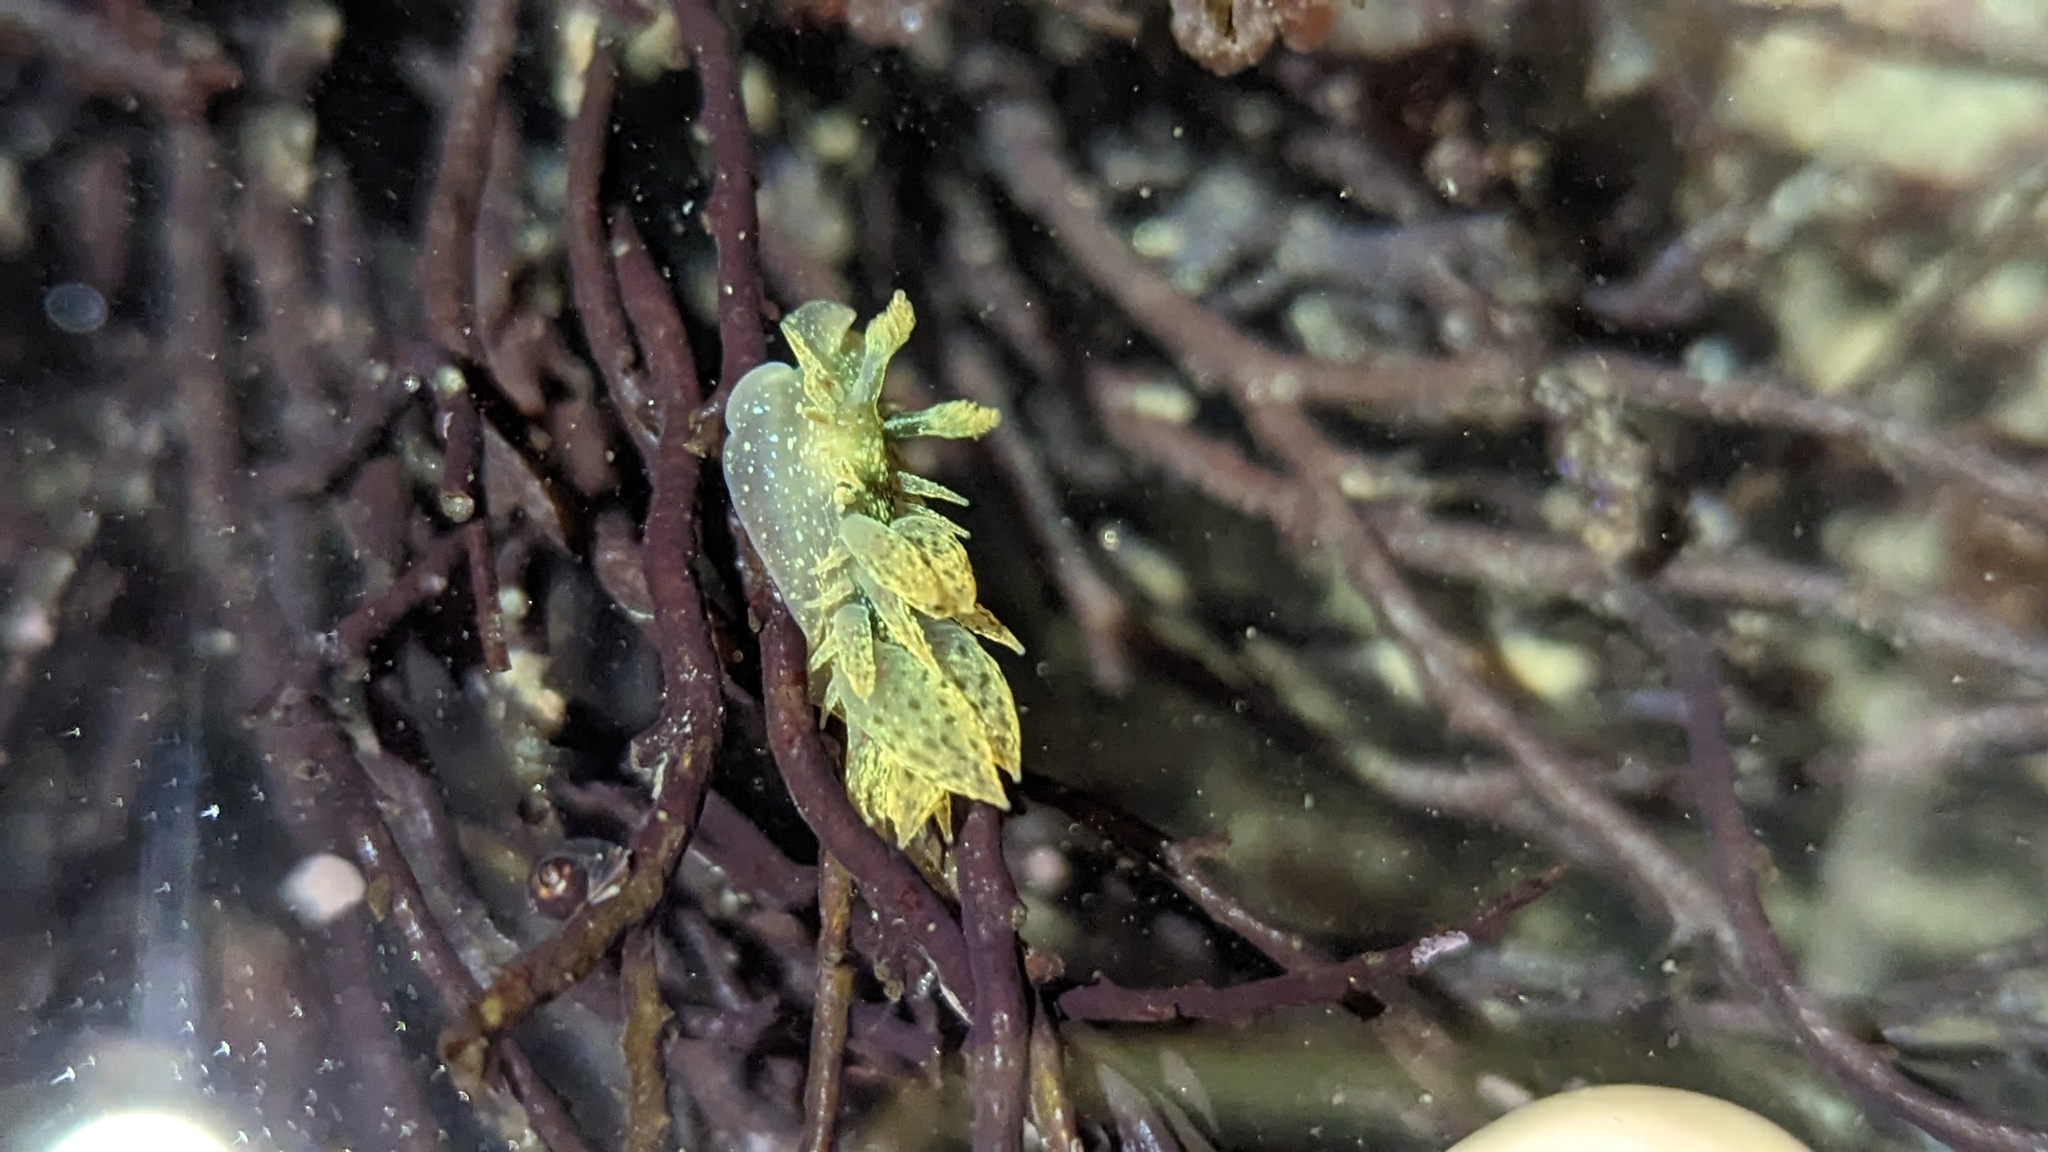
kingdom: Animalia
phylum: Mollusca
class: Gastropoda
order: Nudibranchia
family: Dironidae
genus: Dirona
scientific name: Dirona picta
